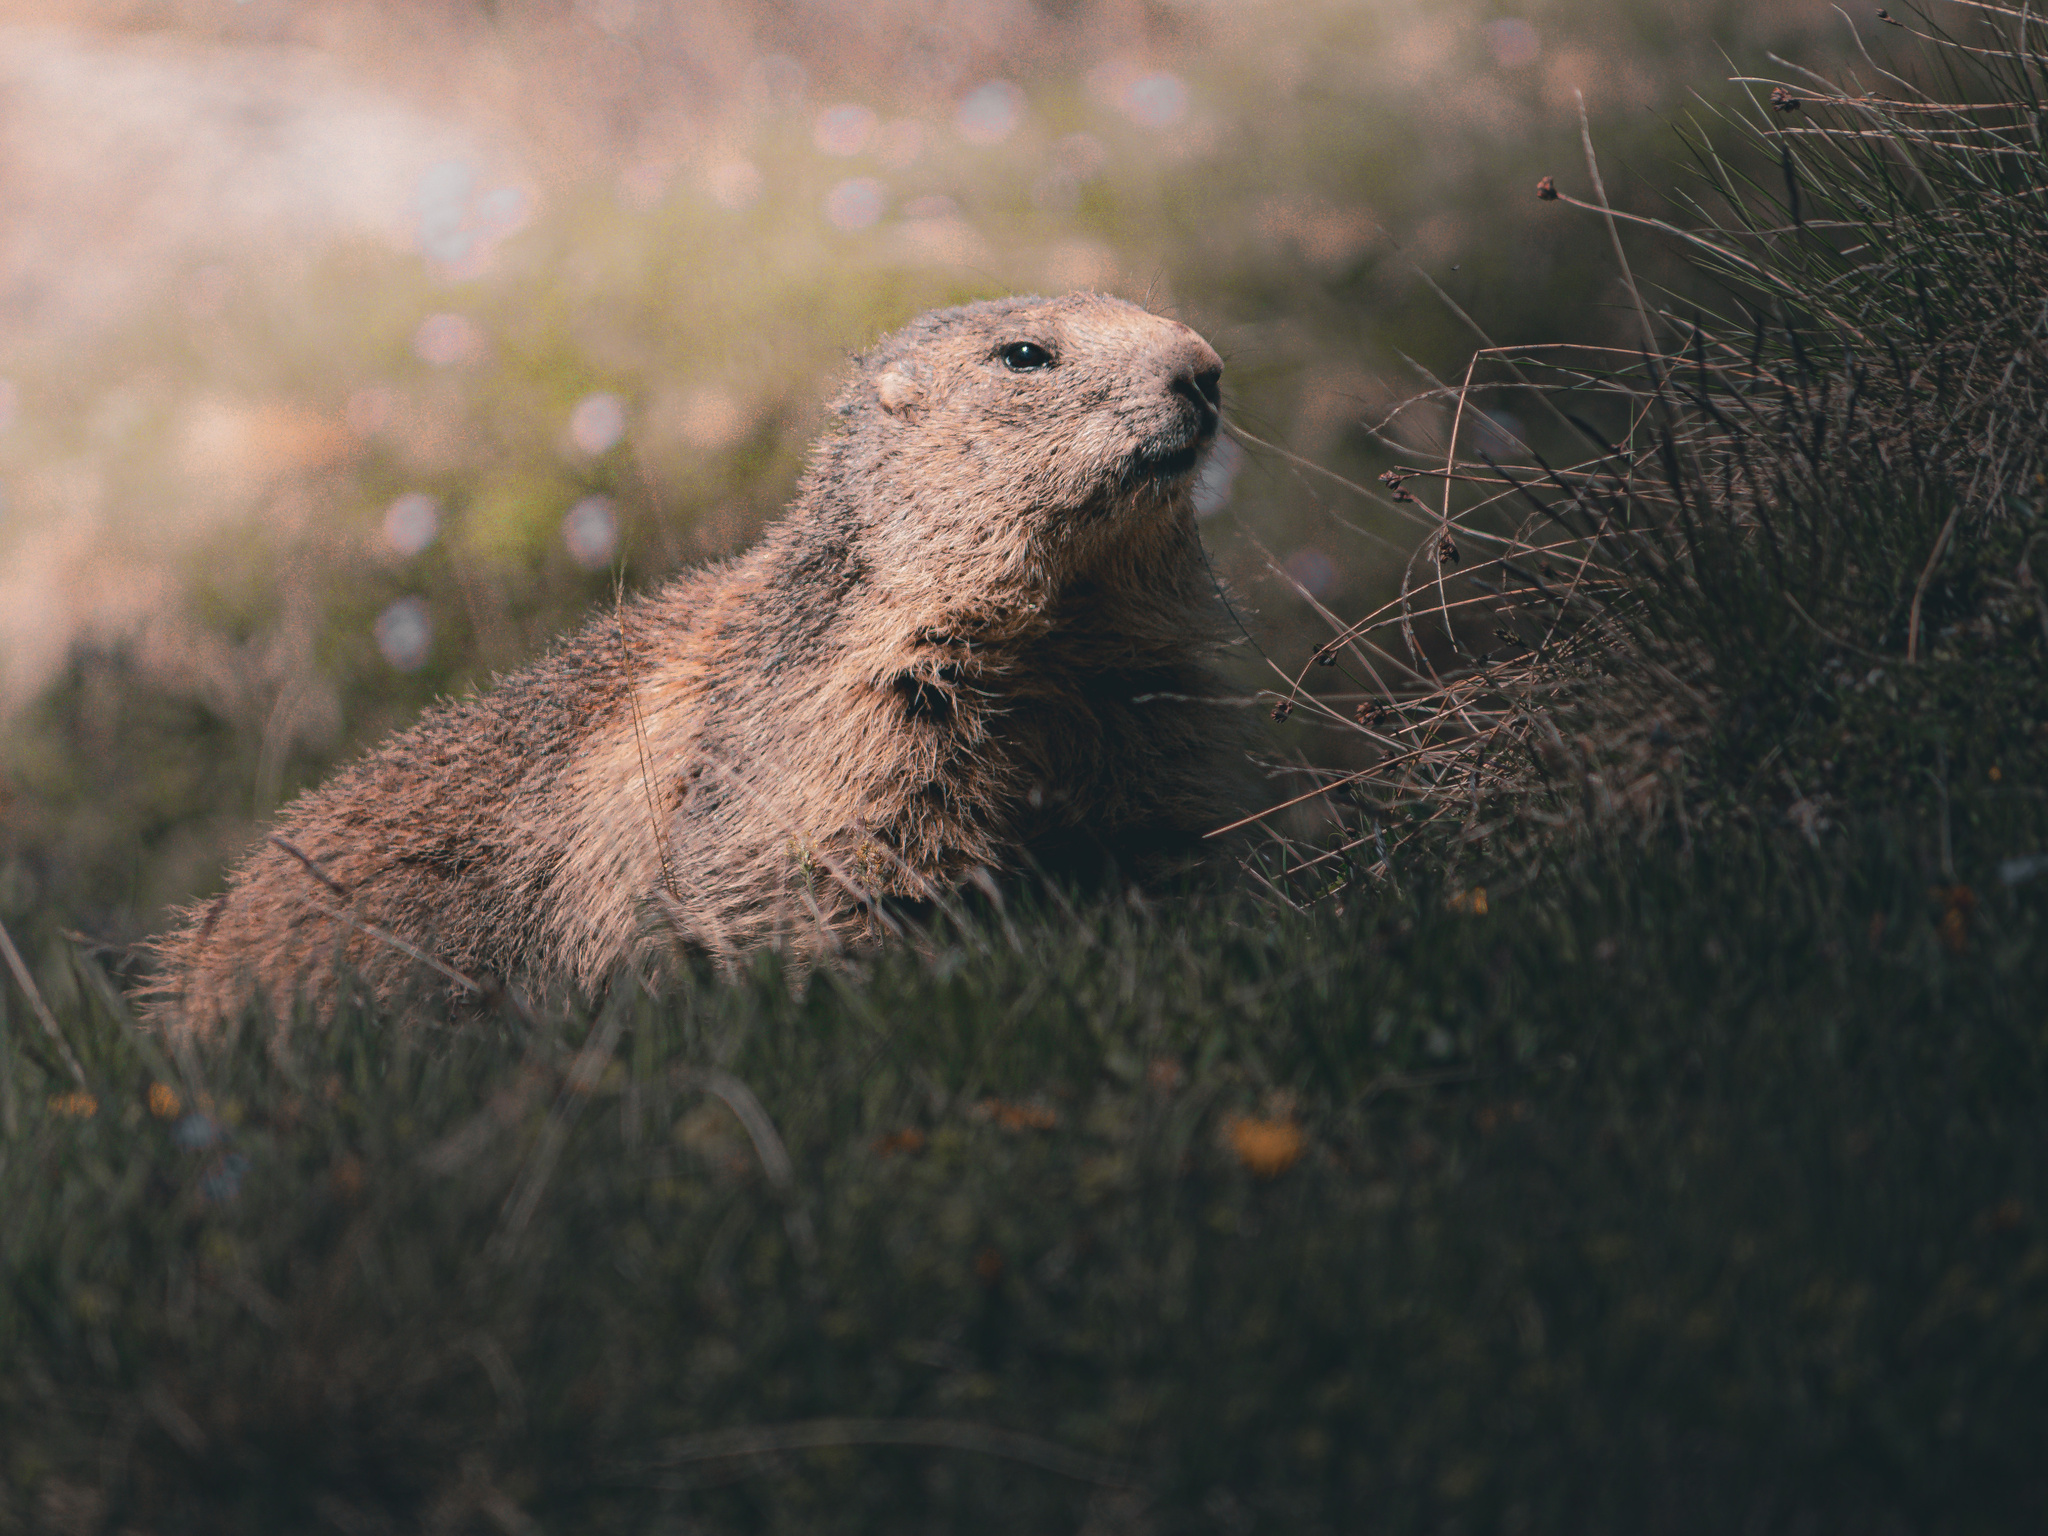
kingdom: Animalia
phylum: Chordata
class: Mammalia
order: Rodentia
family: Sciuridae
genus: Marmota
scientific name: Marmota marmota
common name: Alpine marmot
